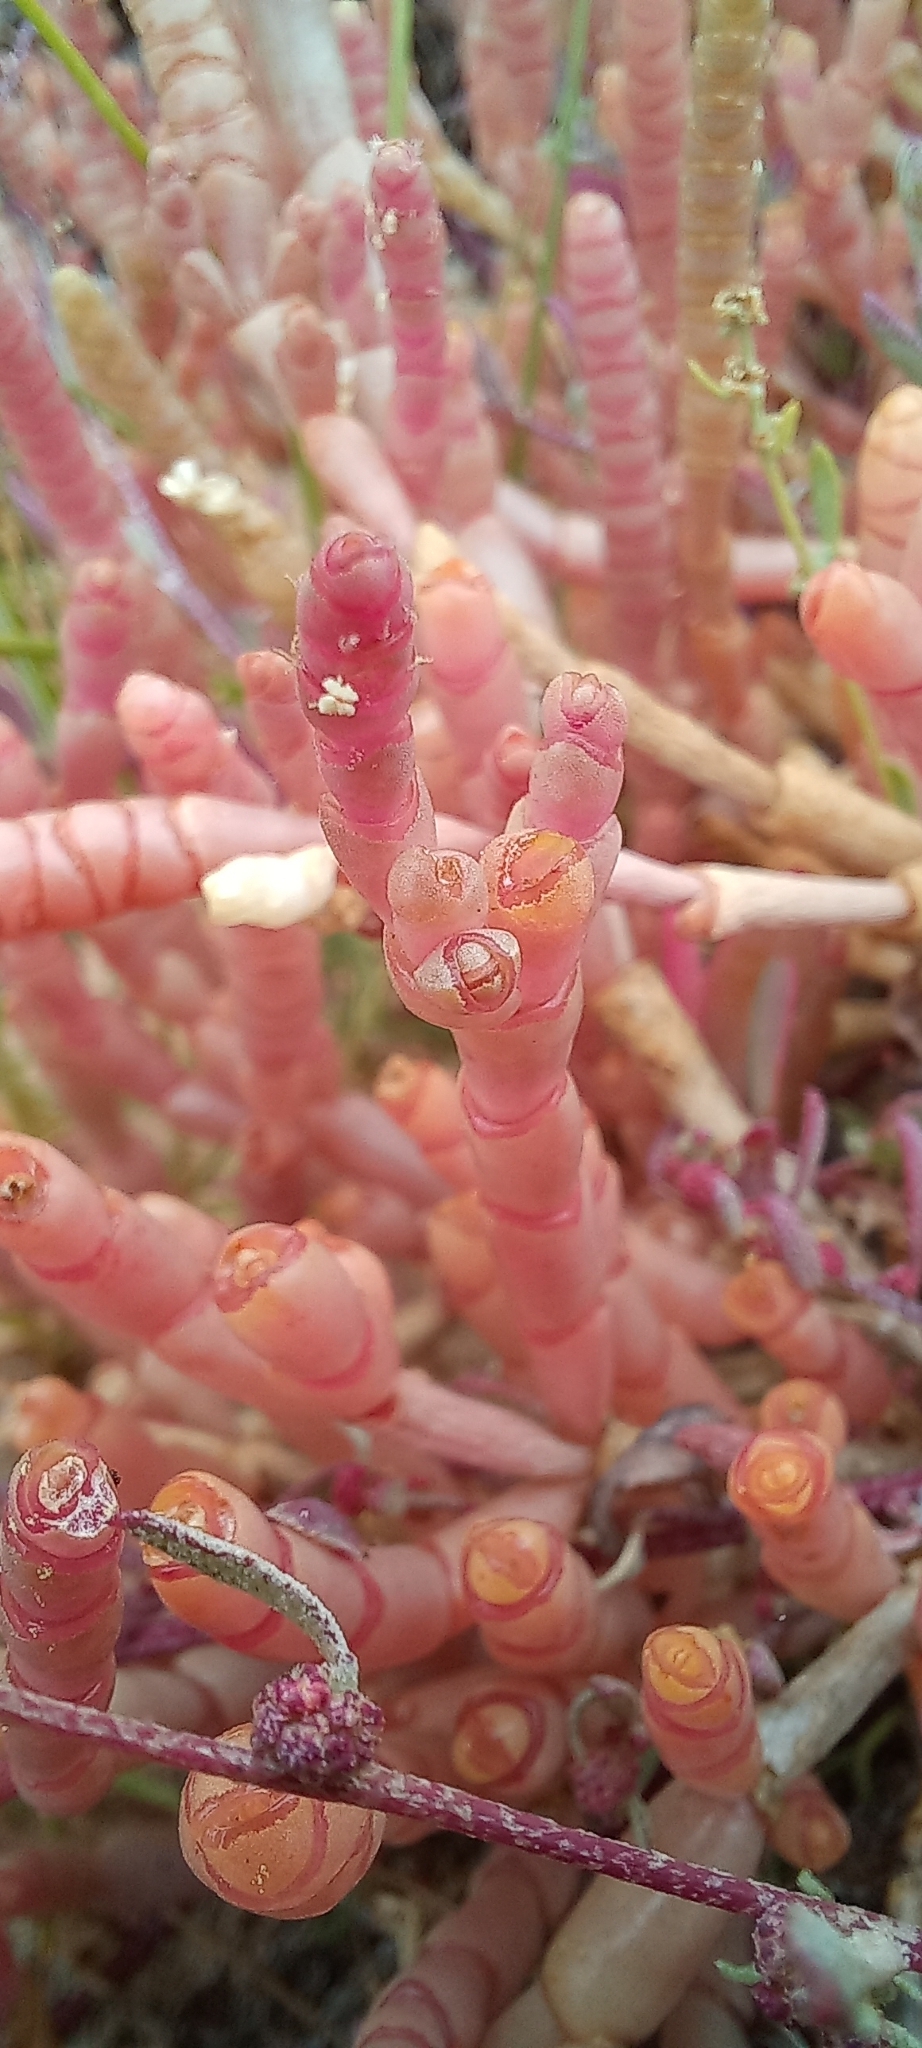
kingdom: Plantae
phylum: Tracheophyta
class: Magnoliopsida
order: Caryophyllales
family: Amaranthaceae
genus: Salicornia
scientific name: Salicornia natalensis
